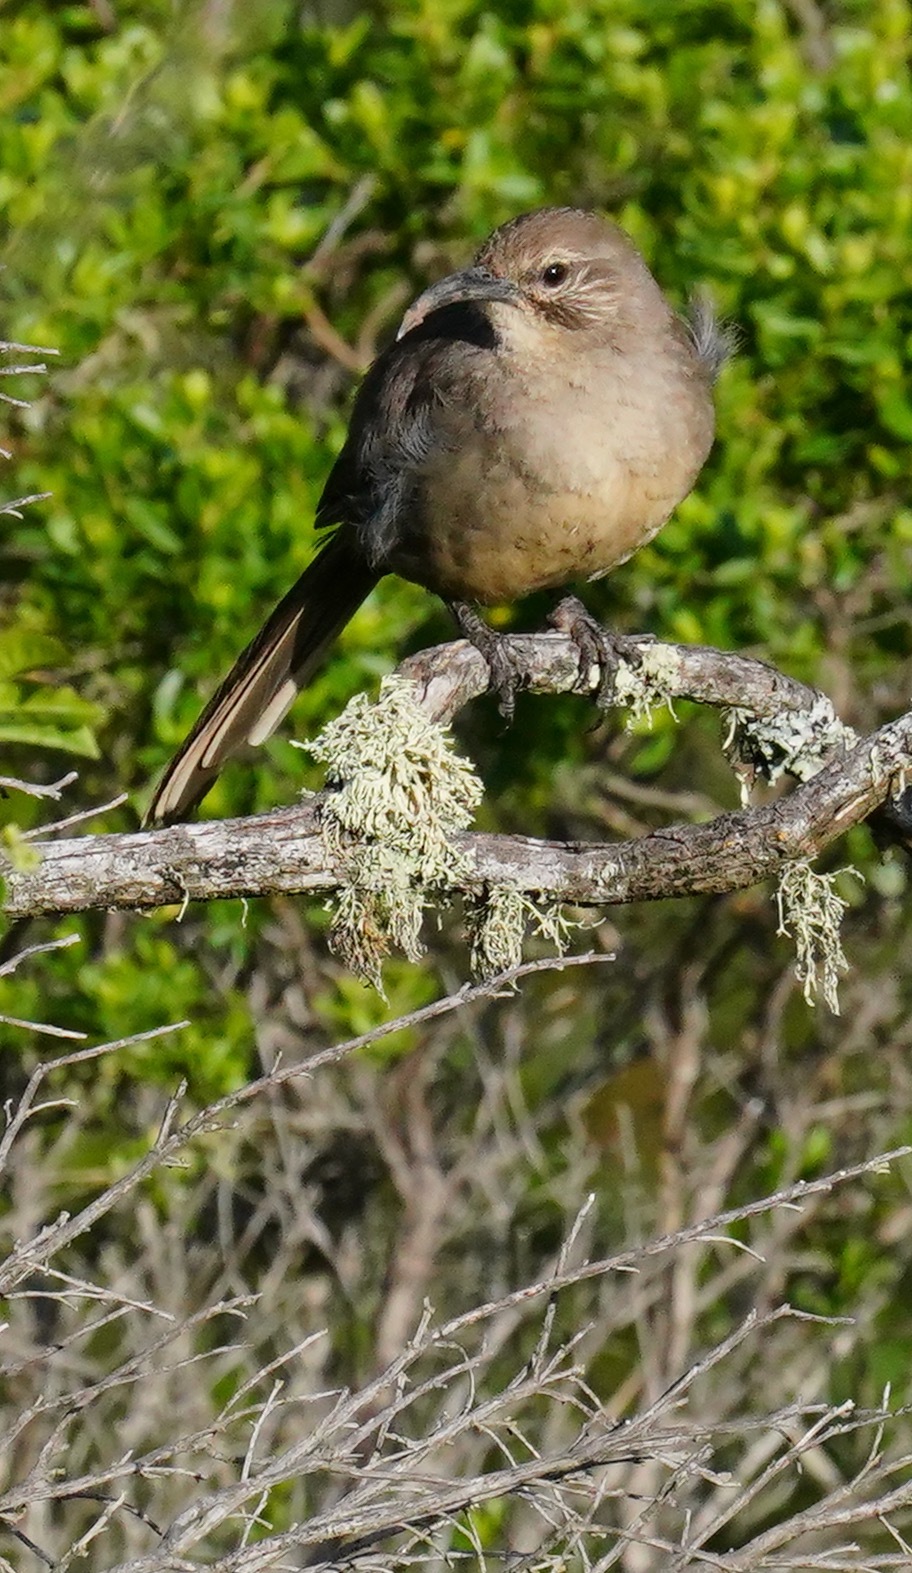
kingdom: Animalia
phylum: Chordata
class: Aves
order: Passeriformes
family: Mimidae
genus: Toxostoma
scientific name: Toxostoma redivivum
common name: California thrasher
